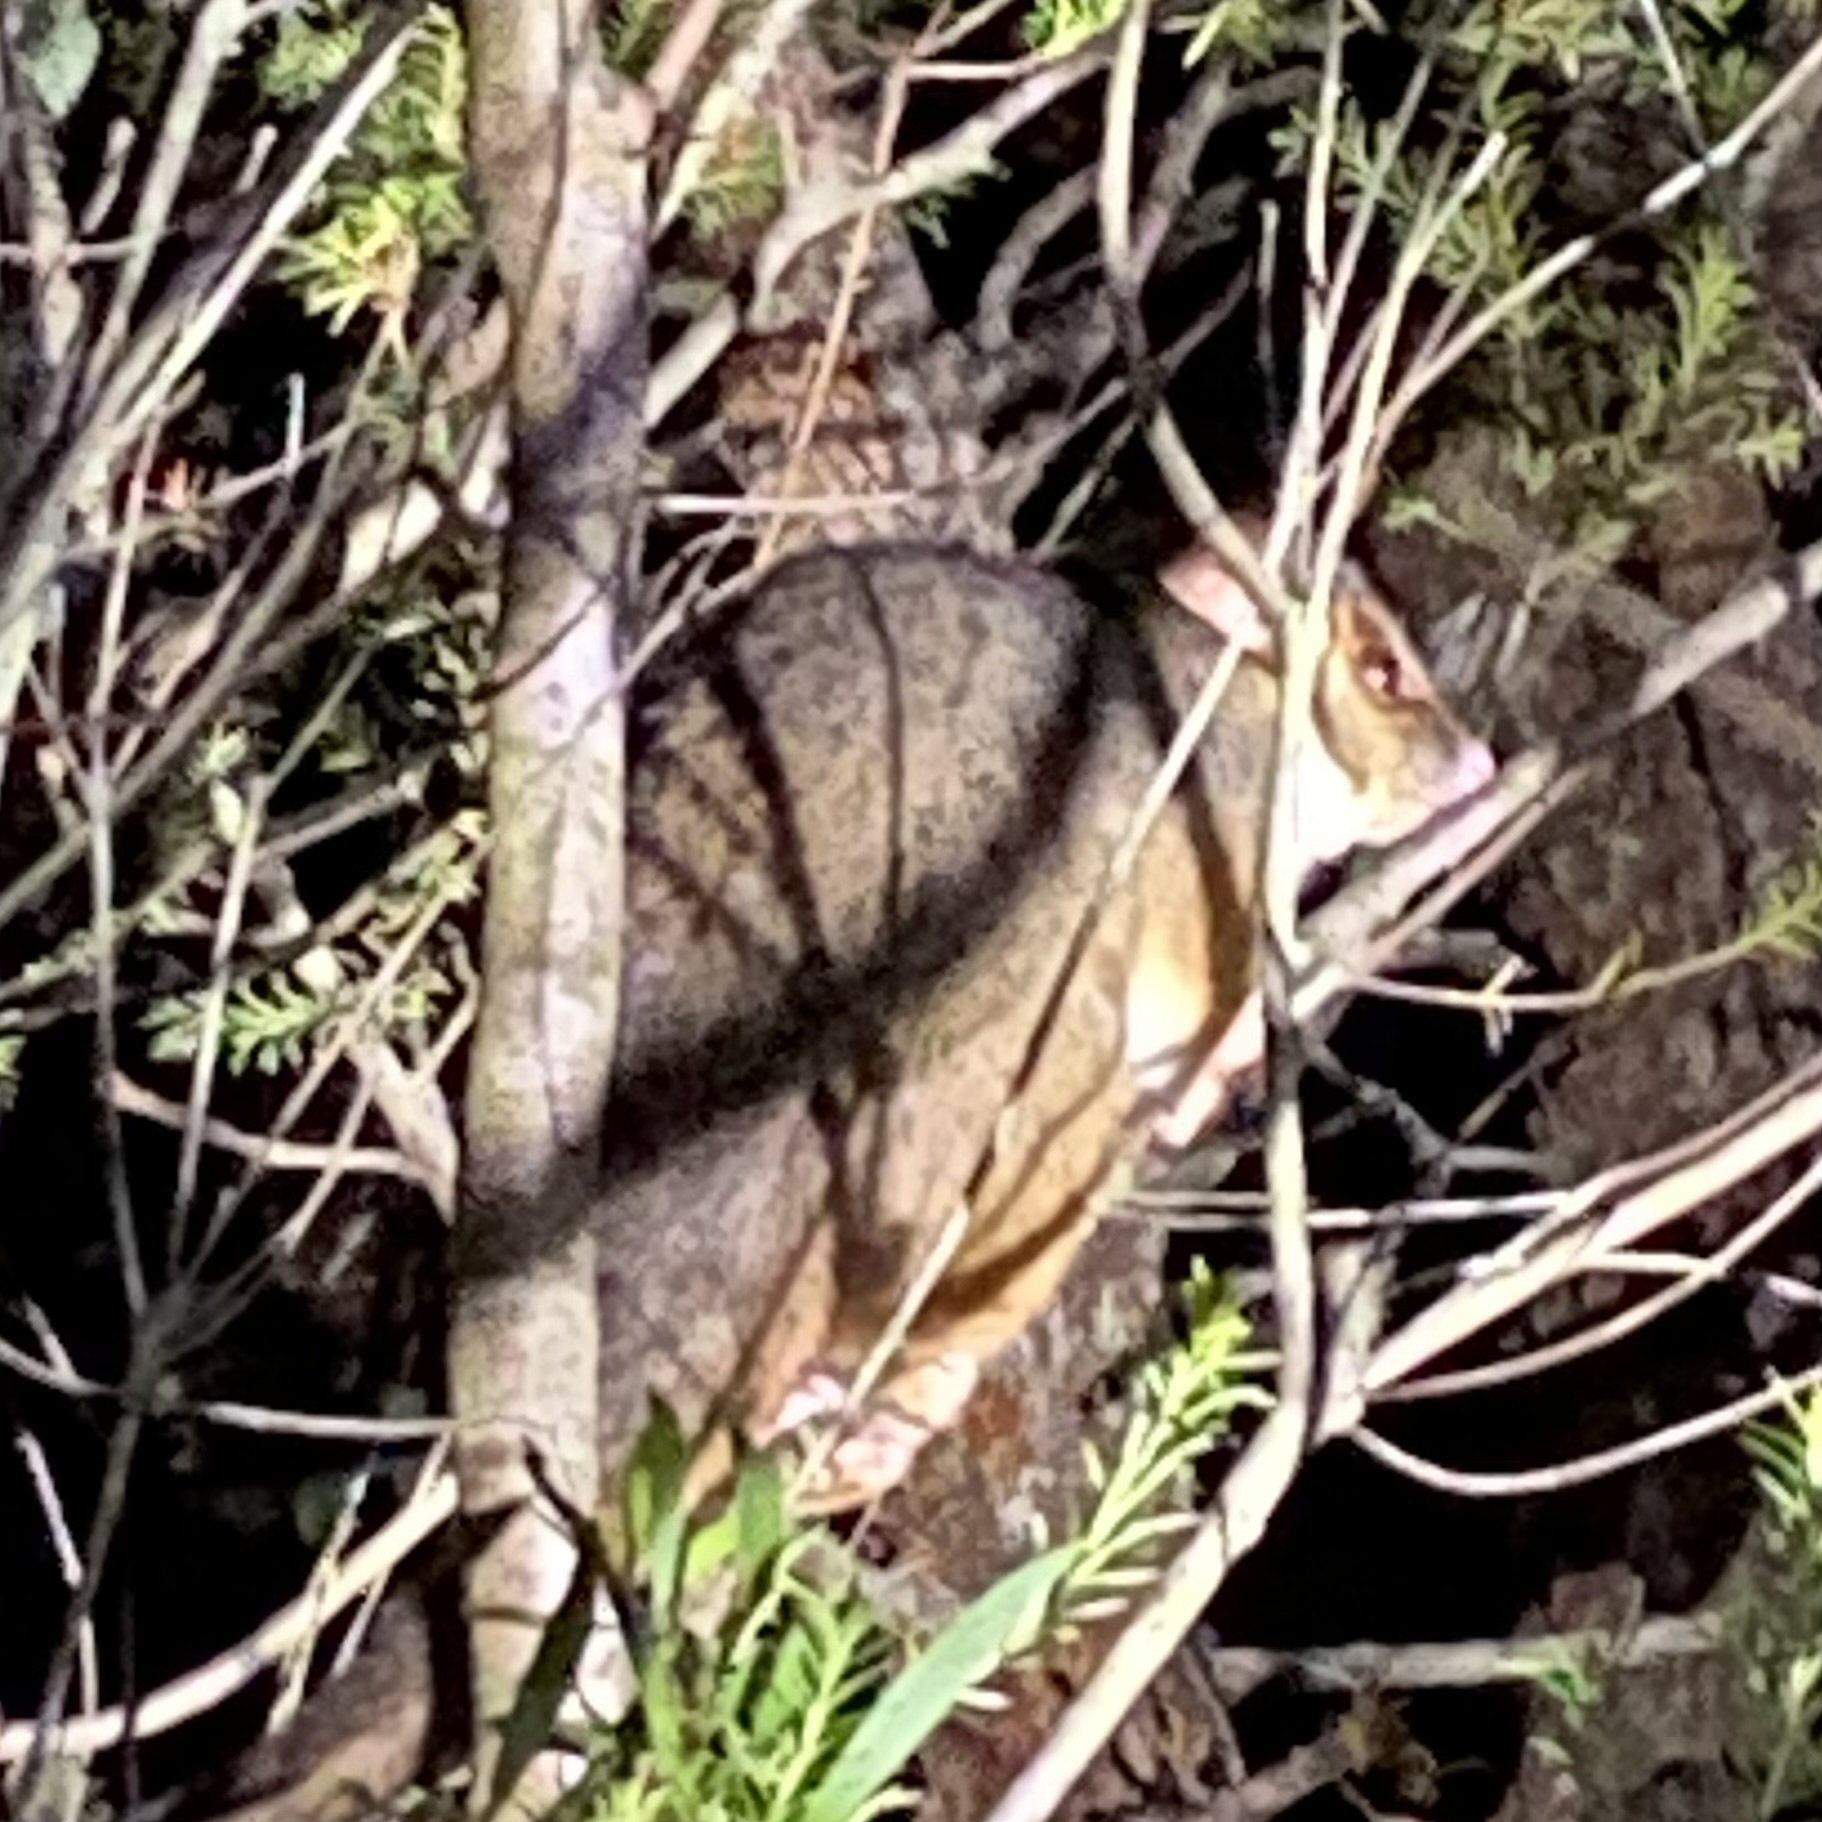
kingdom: Animalia
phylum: Chordata
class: Mammalia
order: Diprotodontia
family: Pseudocheiridae
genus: Pseudocheirus
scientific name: Pseudocheirus peregrinus
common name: Common ringtail possum
